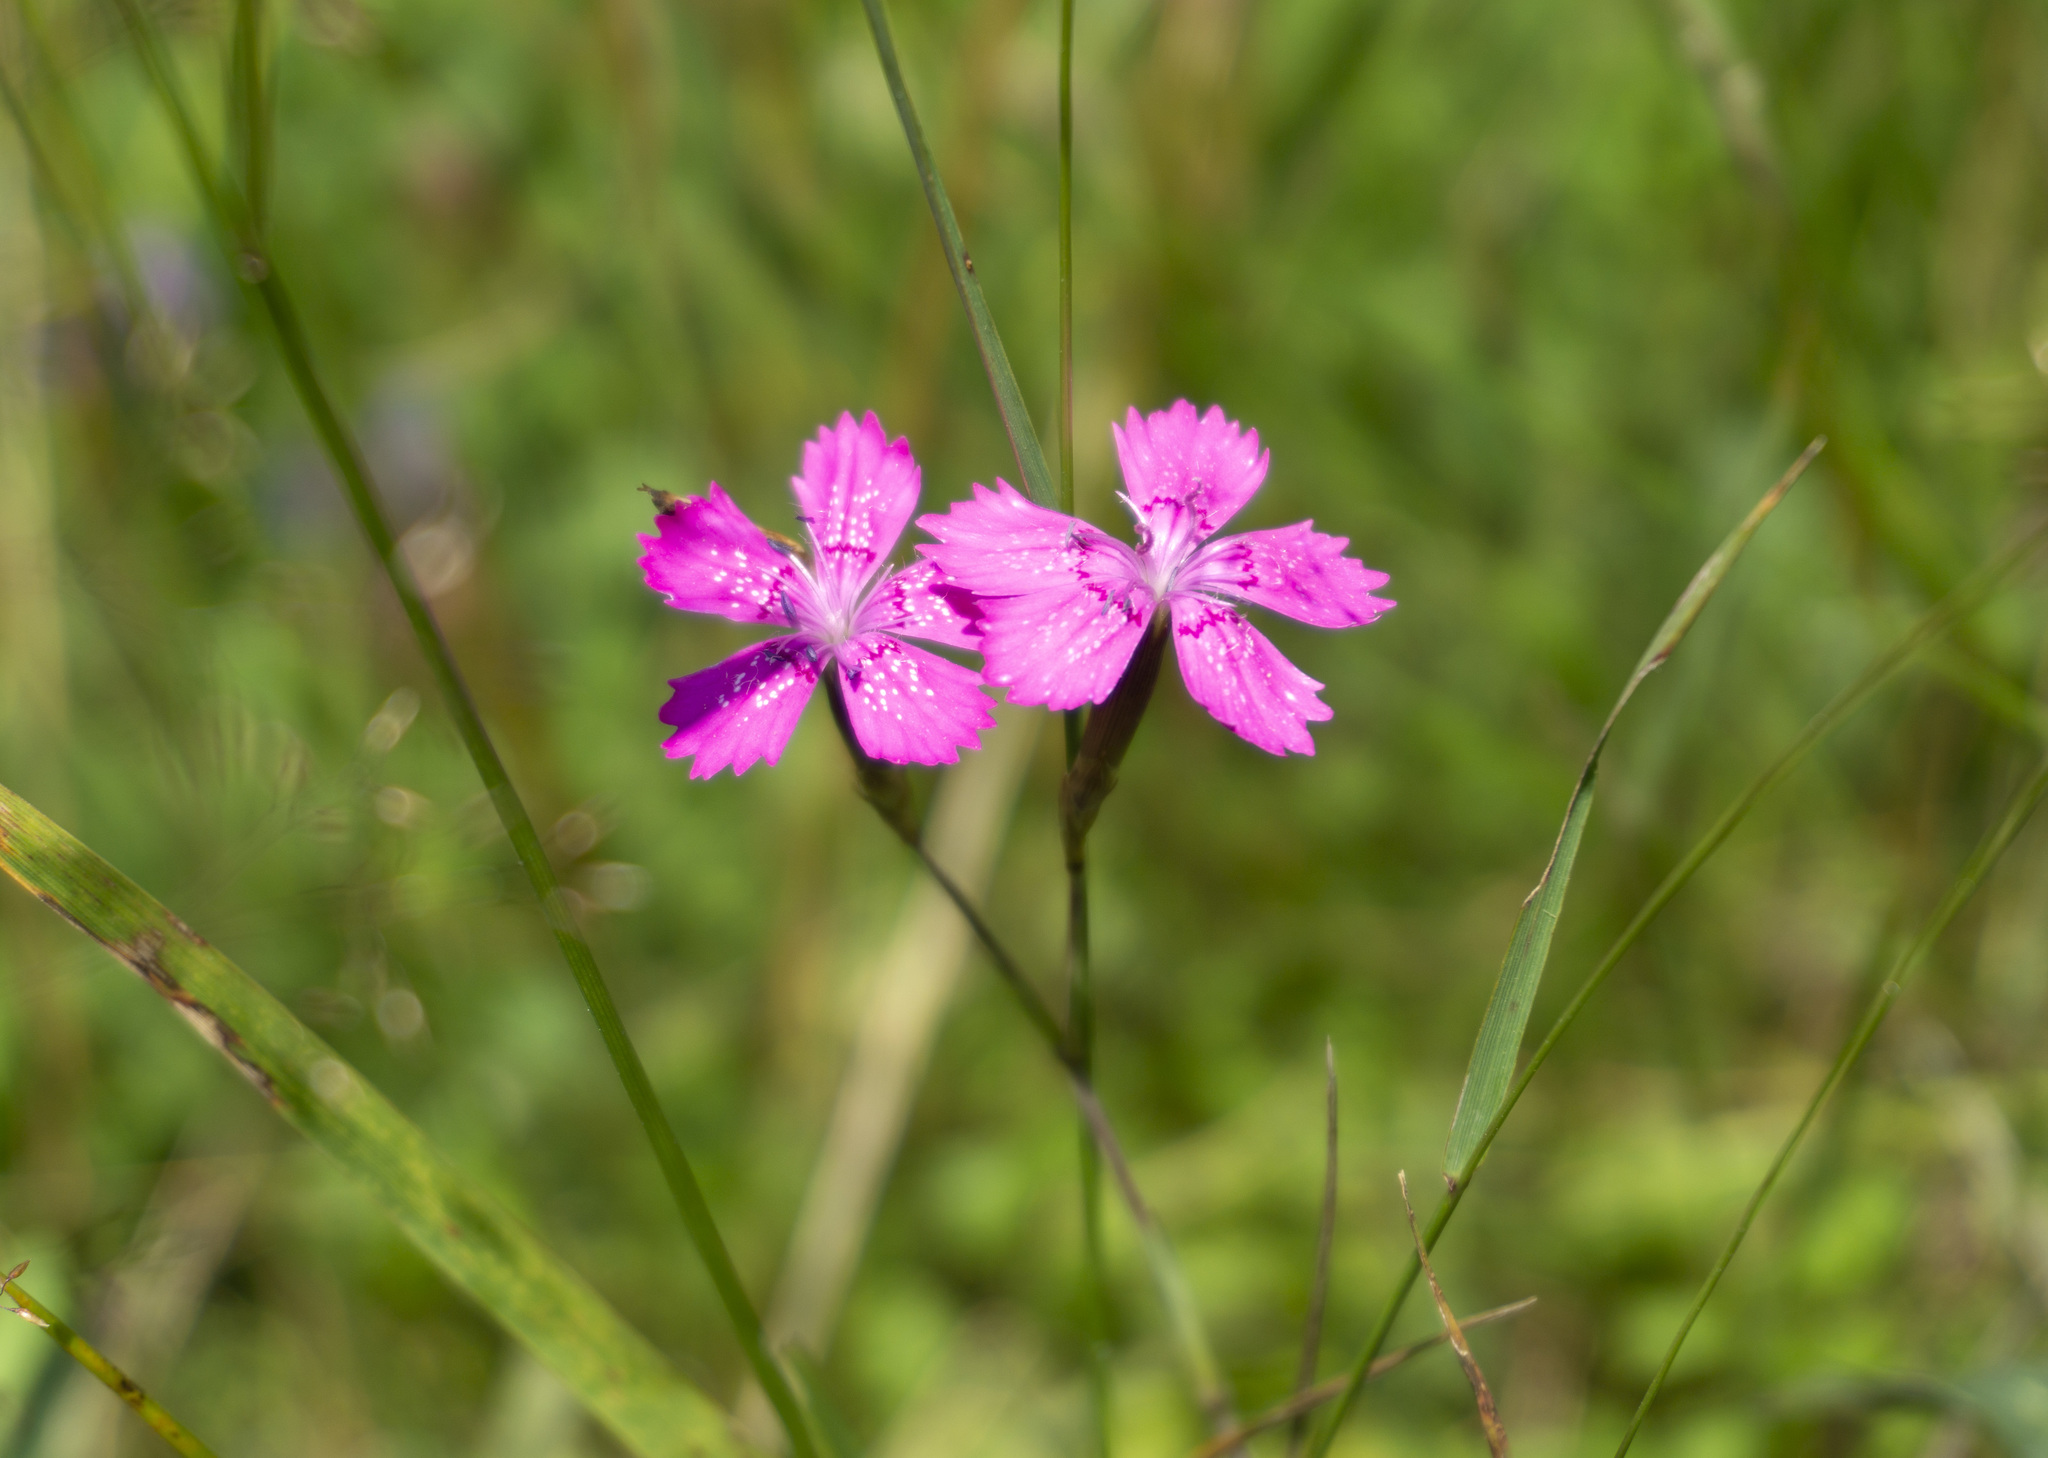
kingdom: Plantae
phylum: Tracheophyta
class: Magnoliopsida
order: Caryophyllales
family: Caryophyllaceae
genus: Dianthus
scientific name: Dianthus deltoides
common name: Maiden pink
